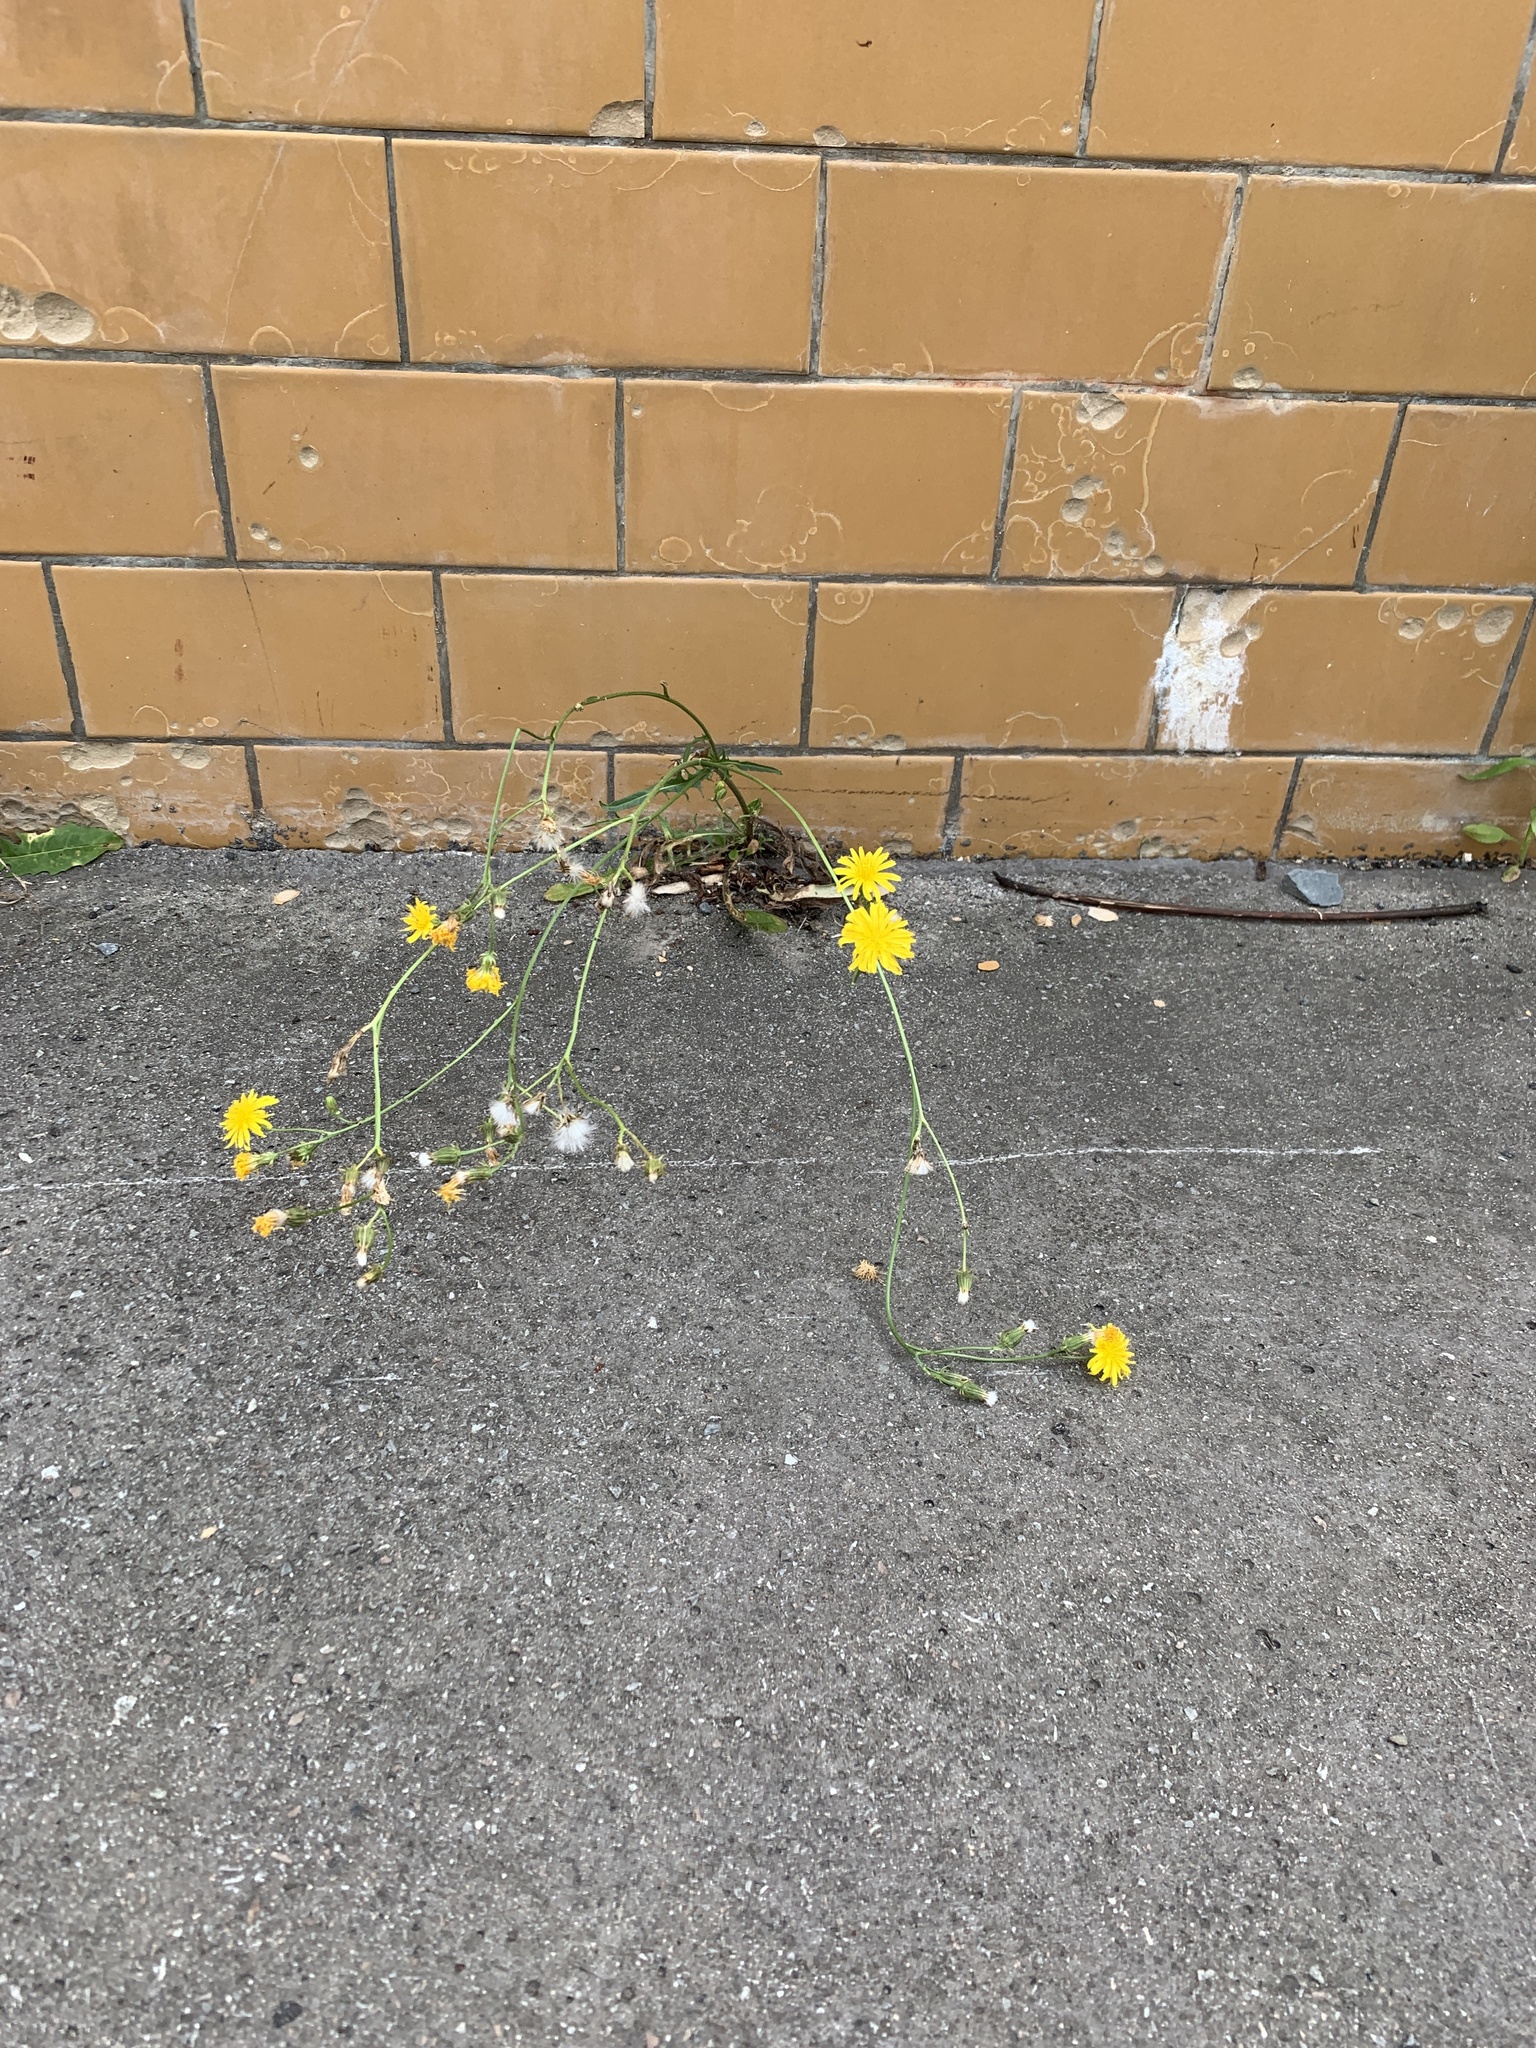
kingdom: Plantae
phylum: Tracheophyta
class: Magnoliopsida
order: Asterales
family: Asteraceae
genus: Crepis
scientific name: Crepis biennis
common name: Rough hawk's-beard
